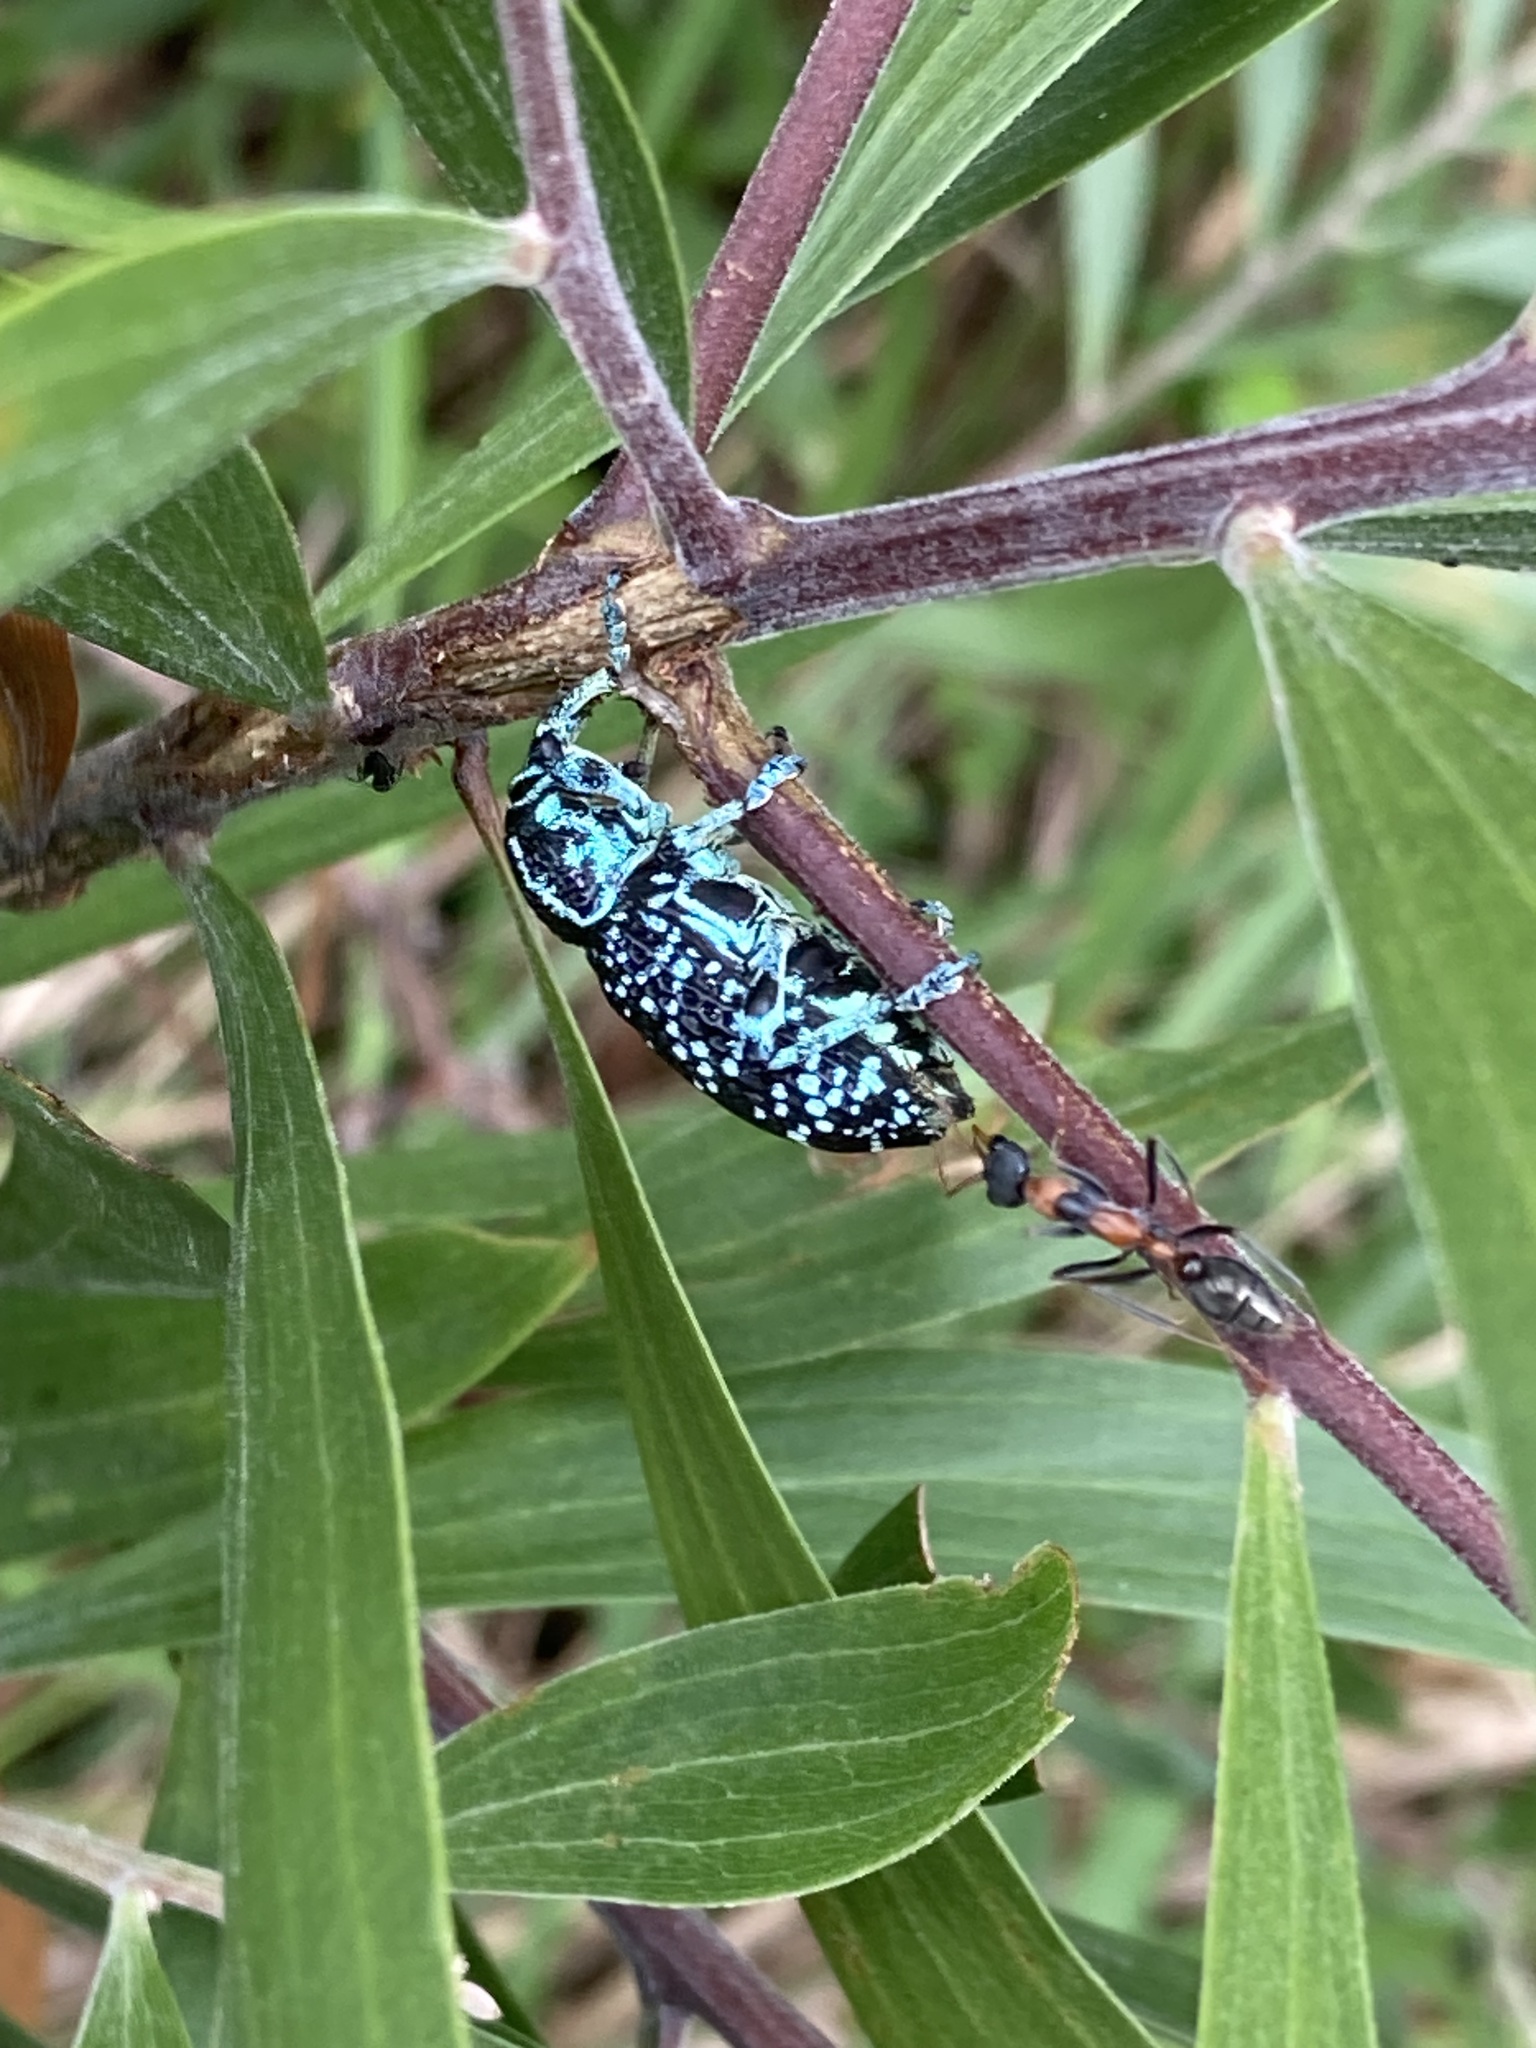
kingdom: Animalia
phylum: Arthropoda
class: Insecta
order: Coleoptera
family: Curculionidae
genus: Chrysolopus
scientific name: Chrysolopus spectabilis
